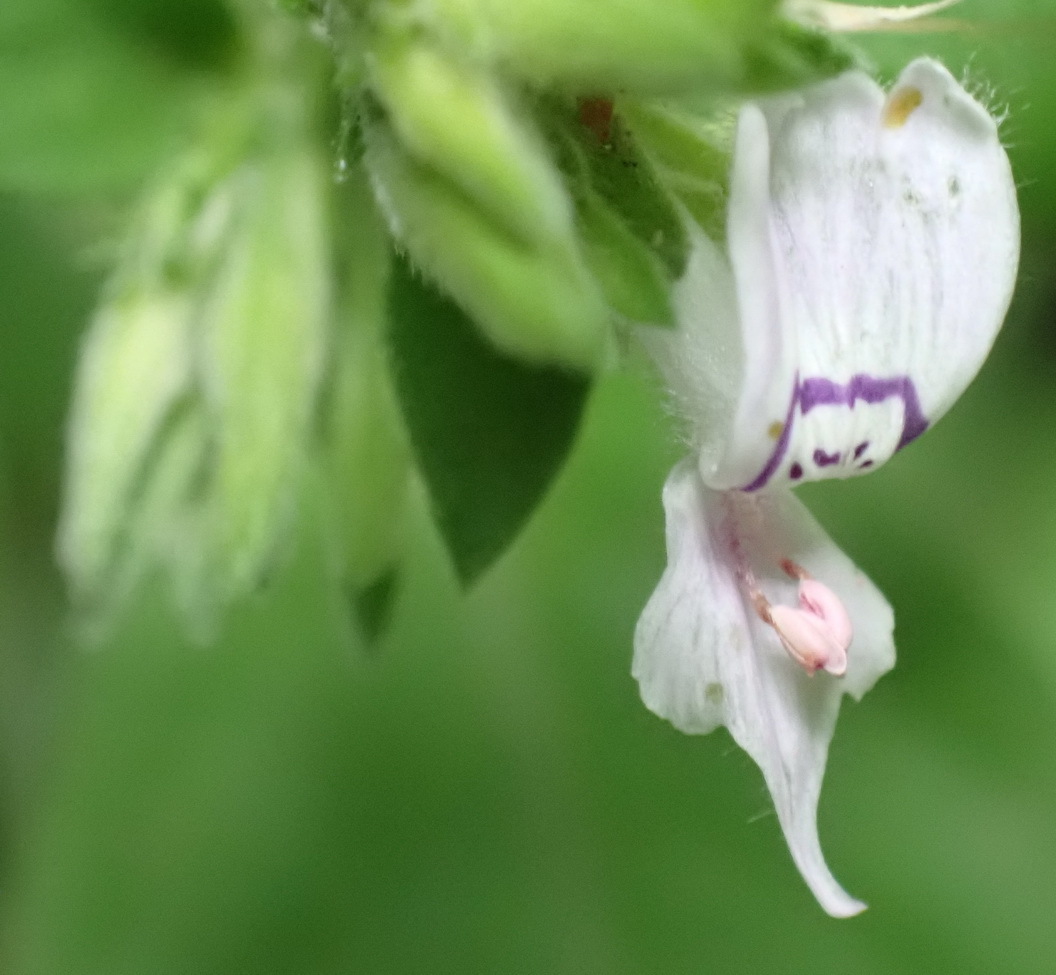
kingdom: Plantae
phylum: Tracheophyta
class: Magnoliopsida
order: Lamiales
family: Acanthaceae
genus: Hypoestes
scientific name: Hypoestes forskaolii
